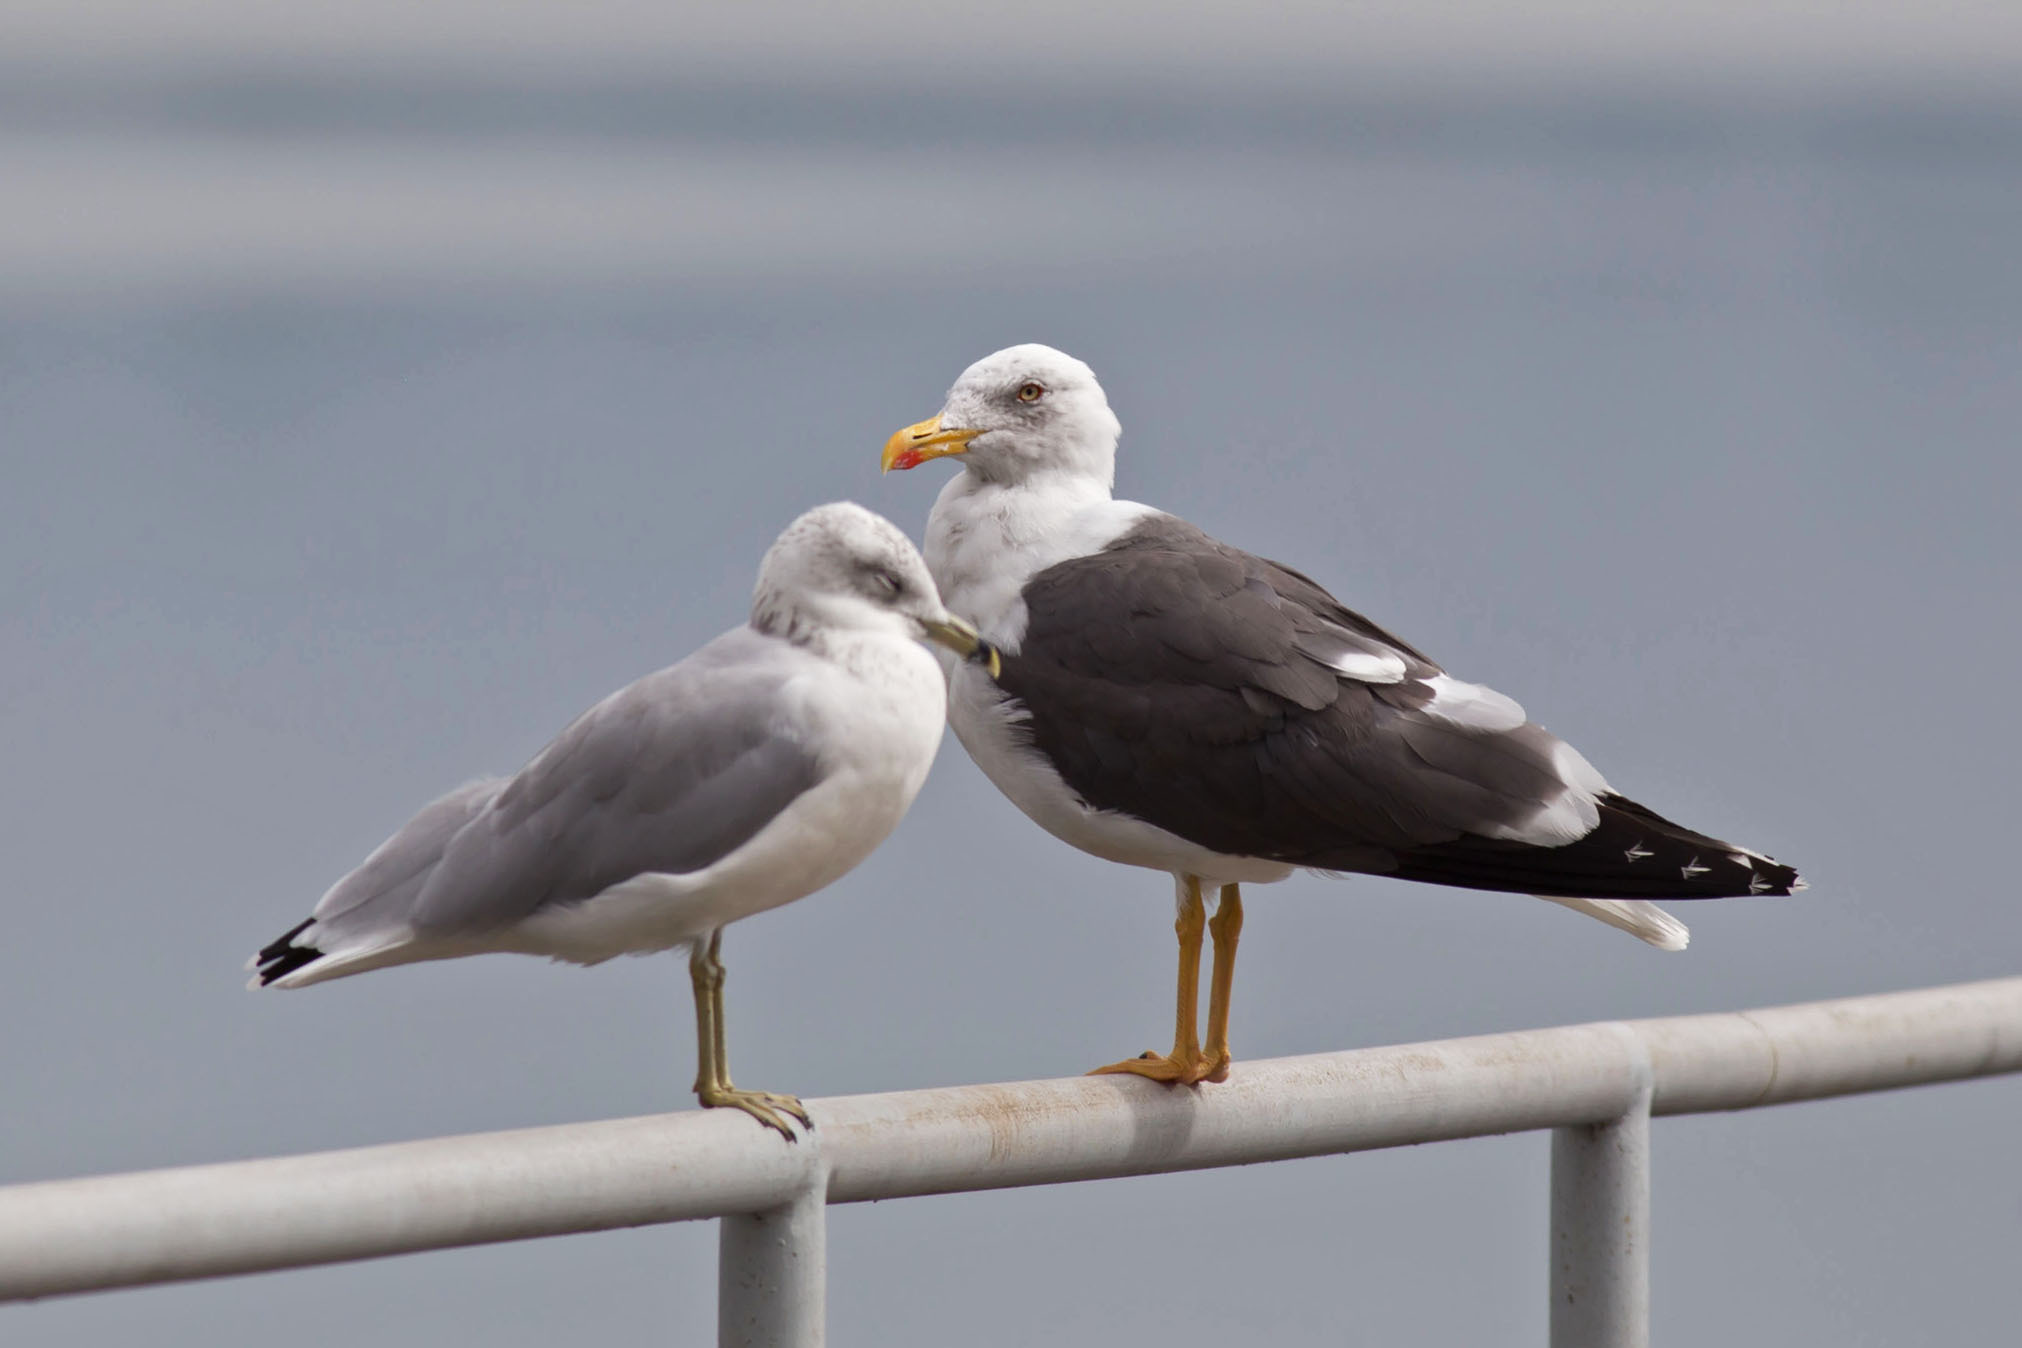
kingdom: Animalia
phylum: Chordata
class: Aves
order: Charadriiformes
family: Laridae
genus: Larus
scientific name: Larus fuscus
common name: Lesser black-backed gull
